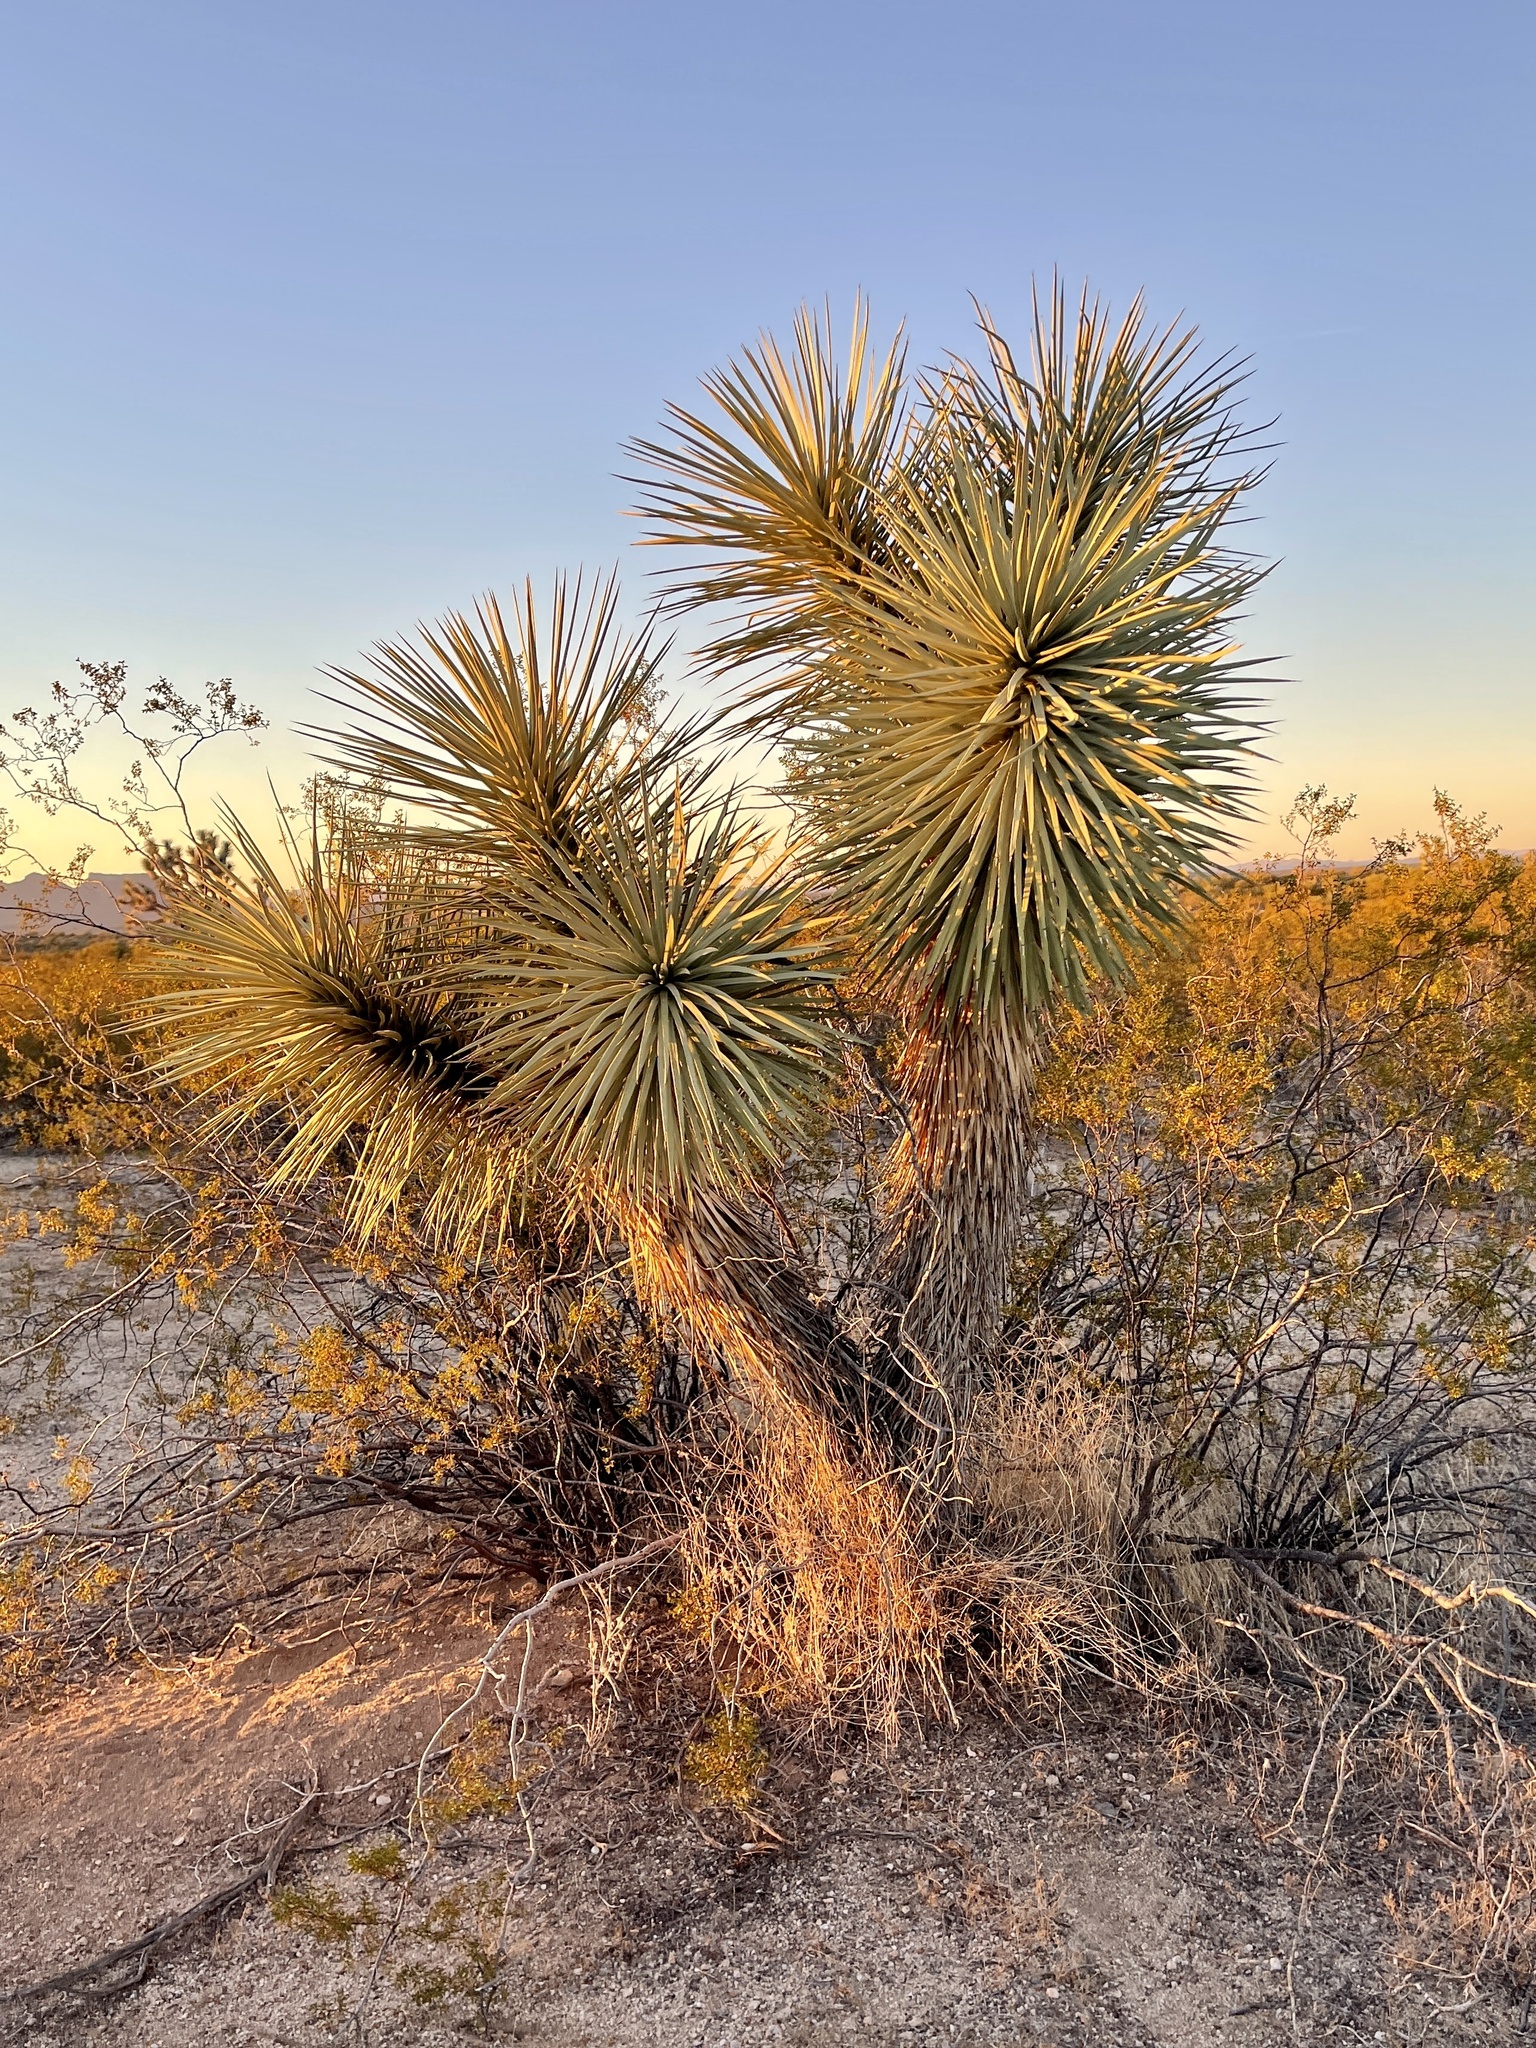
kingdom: Plantae
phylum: Tracheophyta
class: Liliopsida
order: Asparagales
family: Asparagaceae
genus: Yucca
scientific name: Yucca brevifolia
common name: Joshua tree
